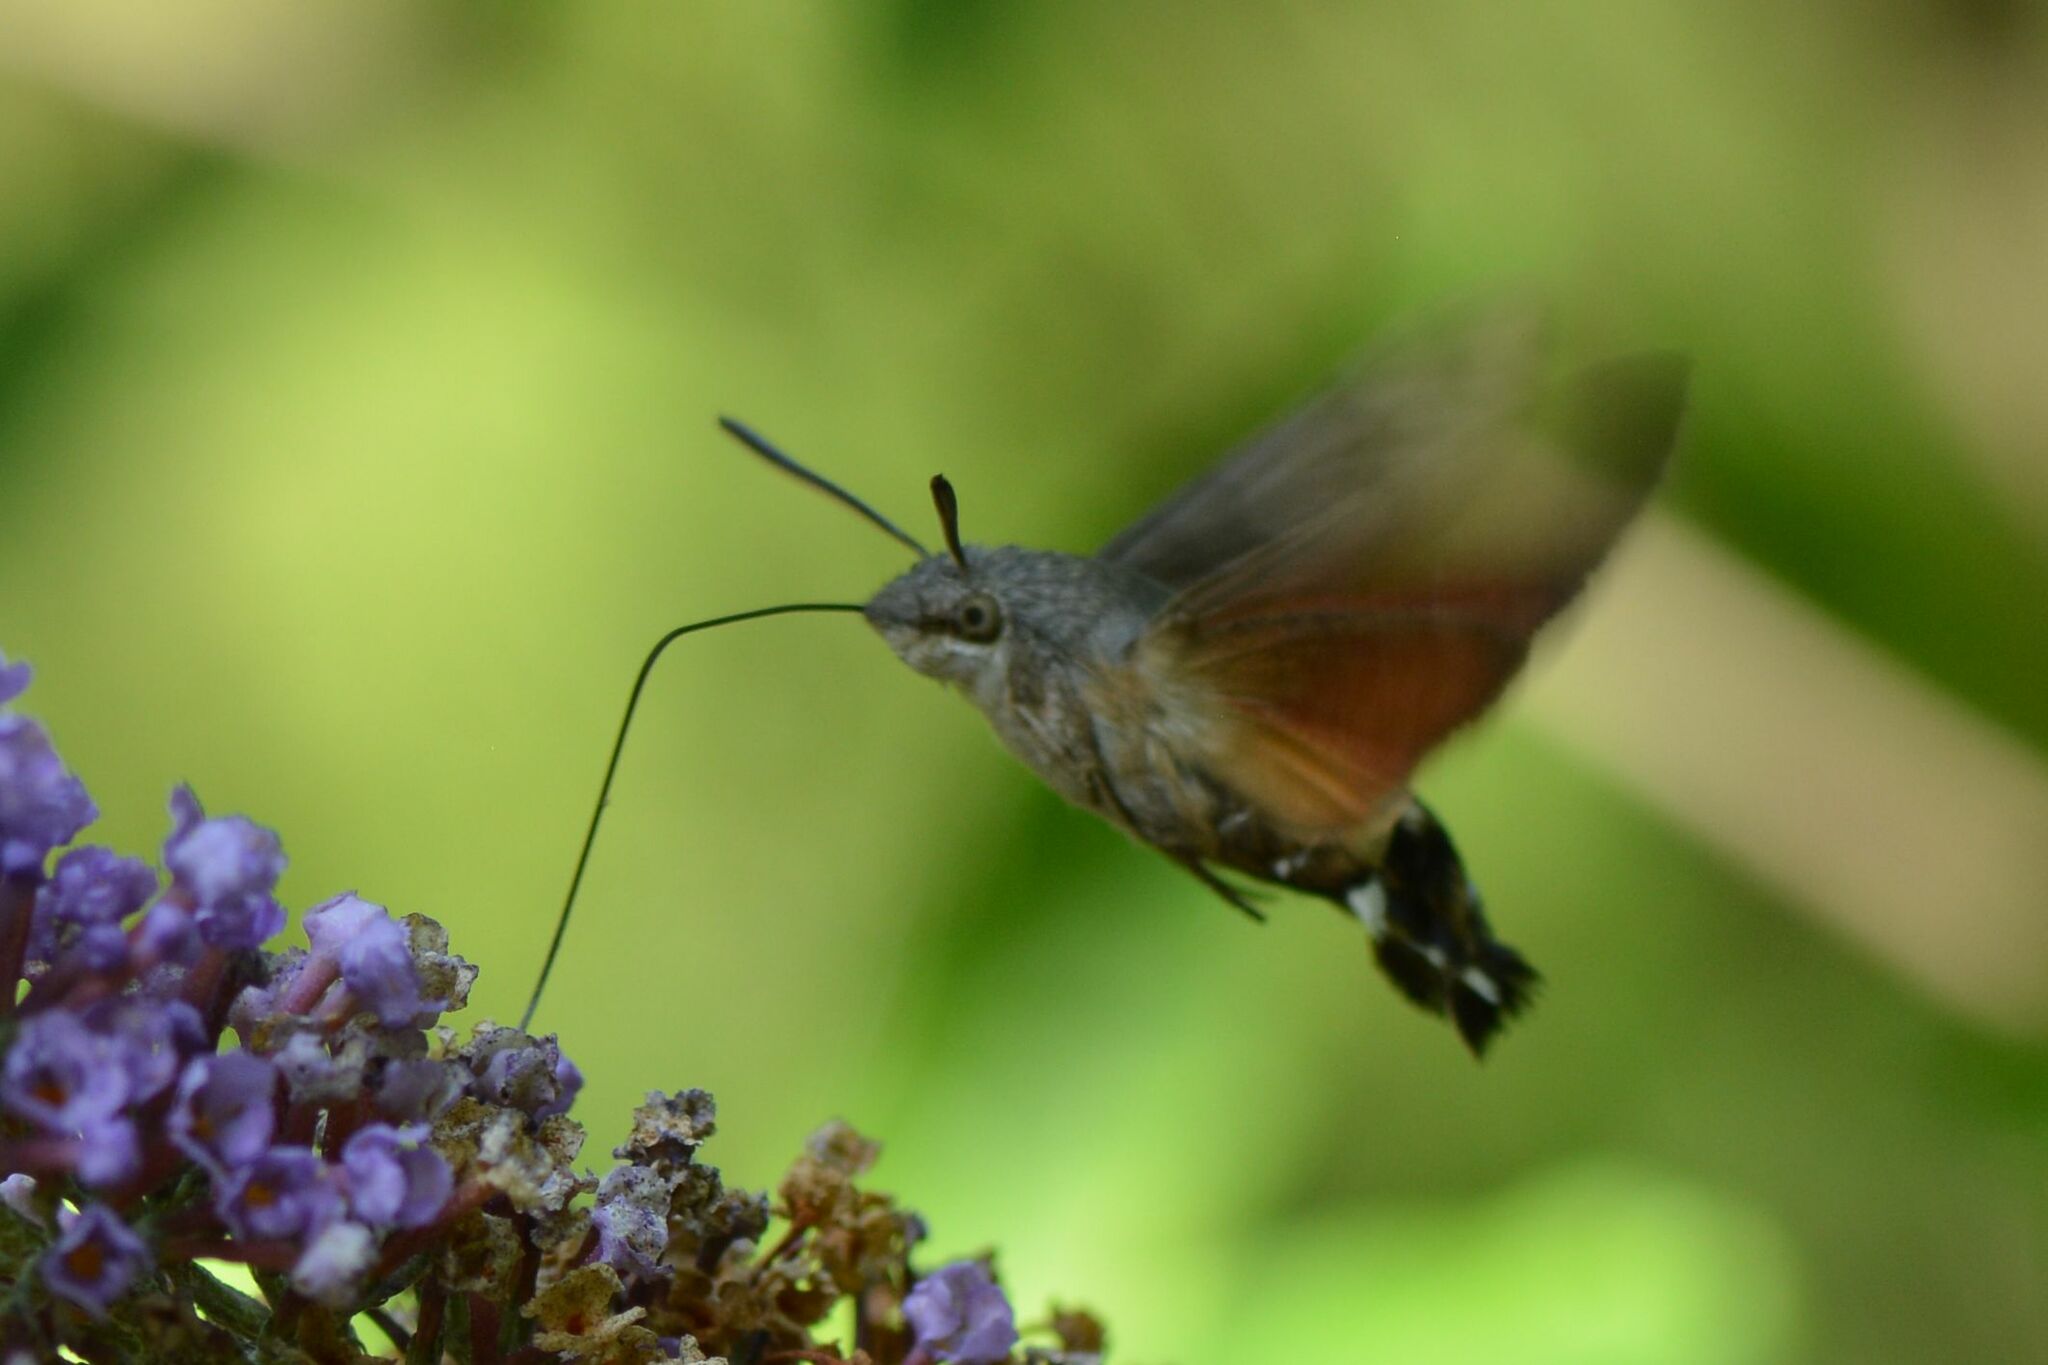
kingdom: Animalia
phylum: Arthropoda
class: Insecta
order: Lepidoptera
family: Sphingidae
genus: Macroglossum
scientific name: Macroglossum stellatarum
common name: Humming-bird hawk-moth
